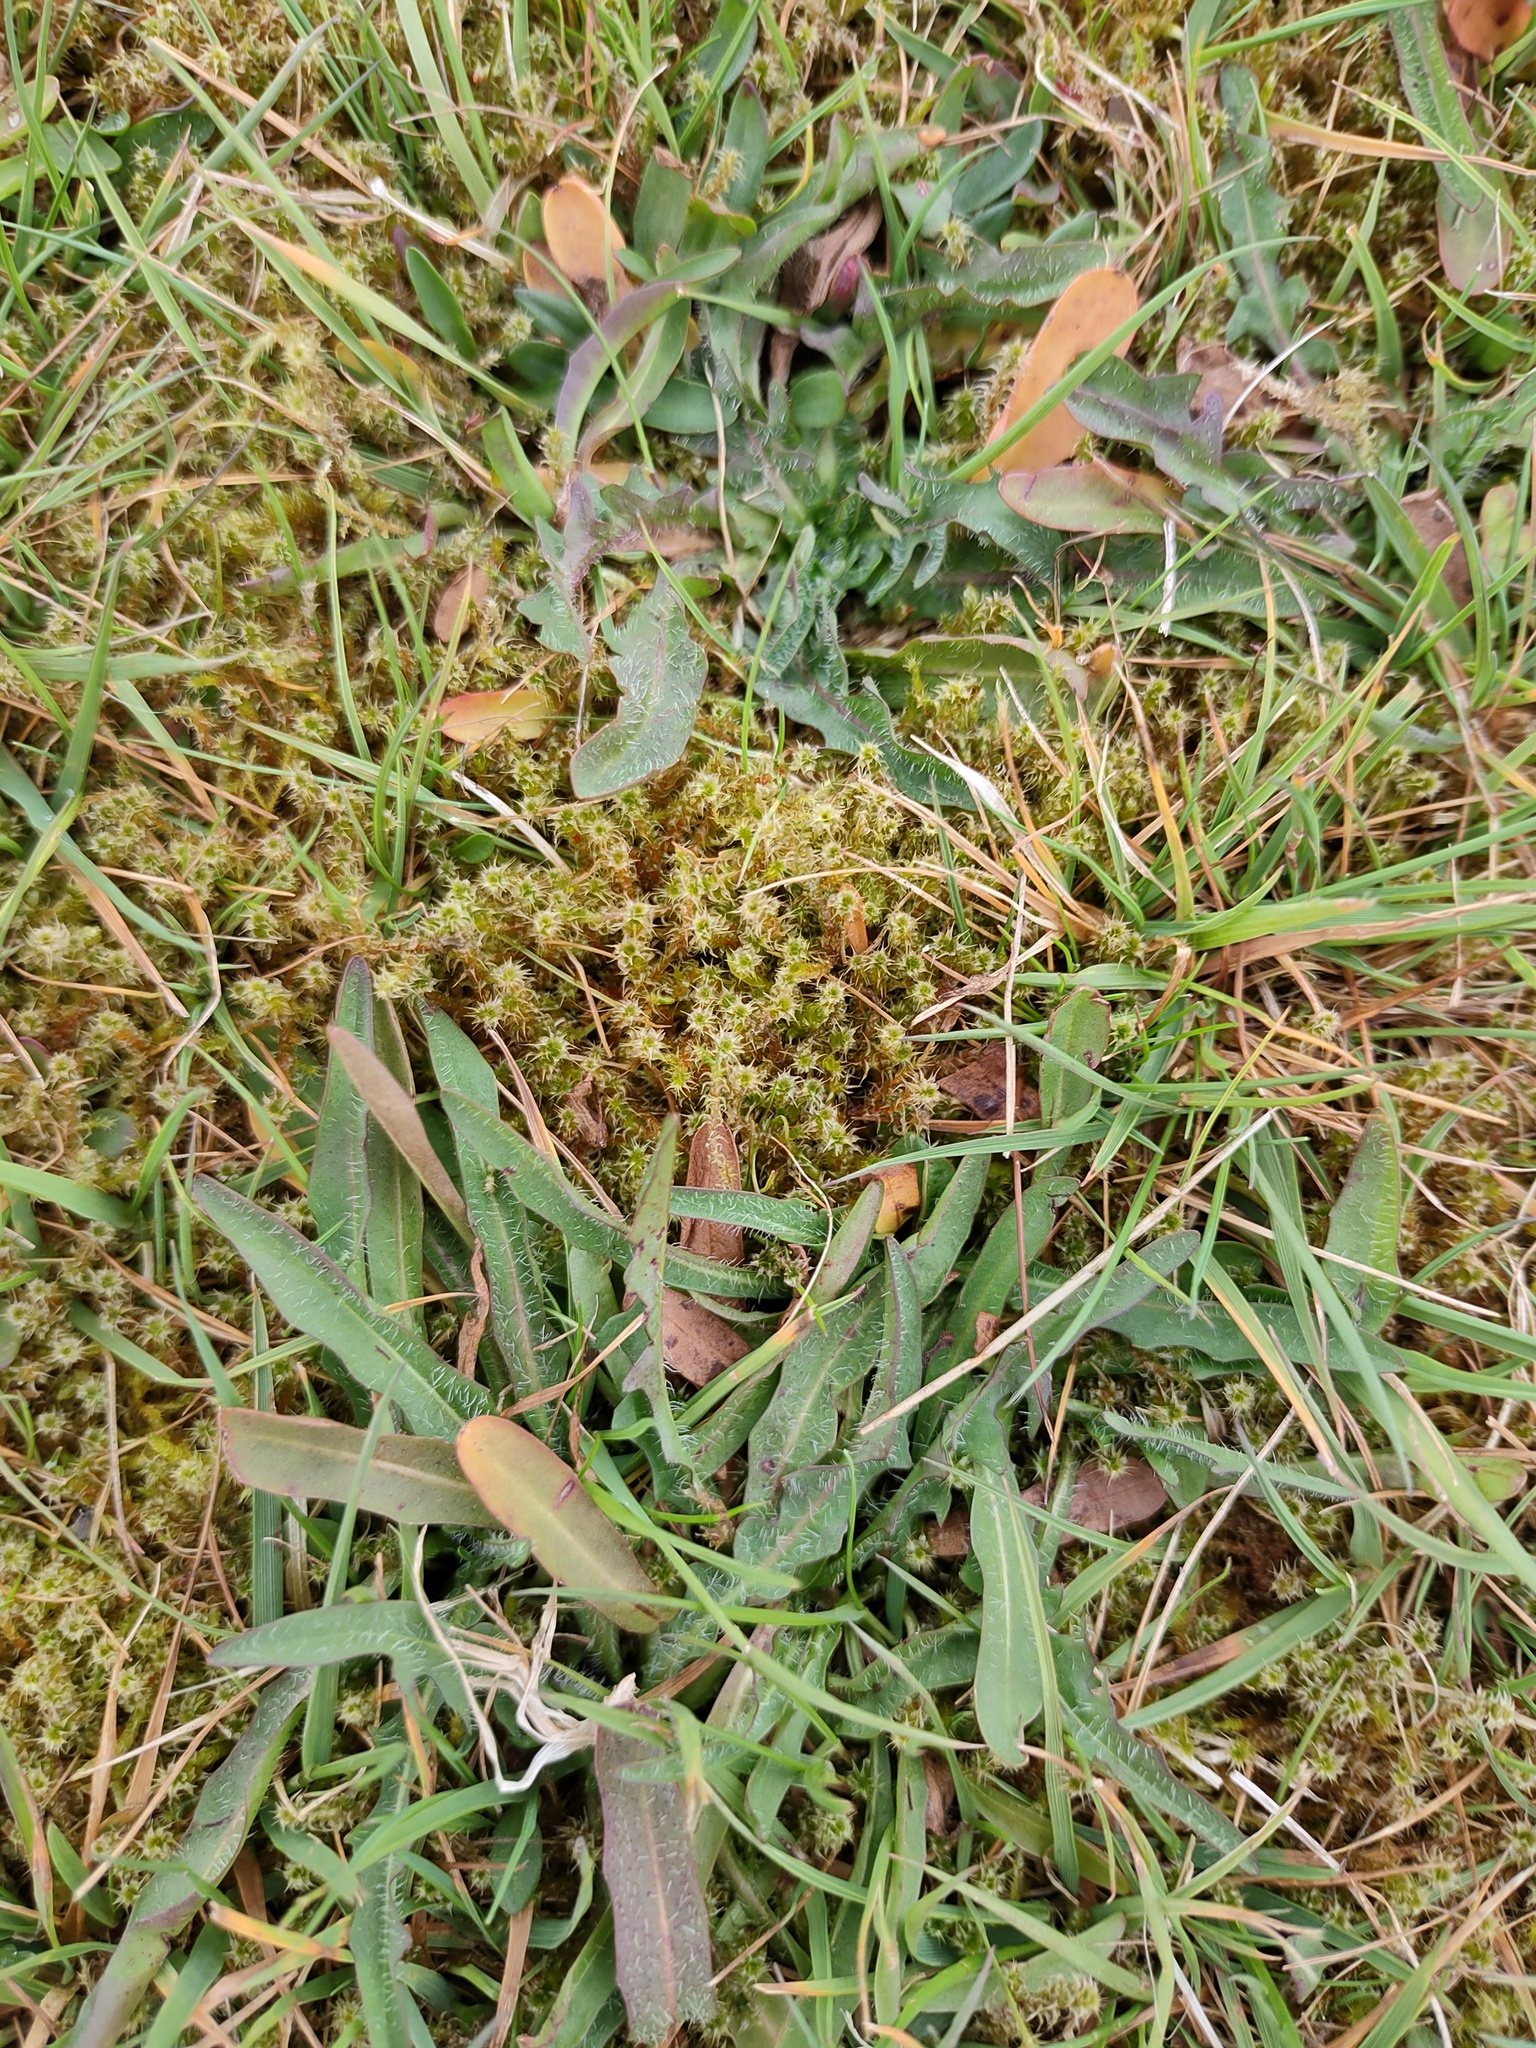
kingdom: Plantae
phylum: Bryophyta
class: Bryopsida
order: Hypnales
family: Hylocomiaceae
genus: Rhytidiadelphus
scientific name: Rhytidiadelphus squarrosus
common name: Springy turf-moss
